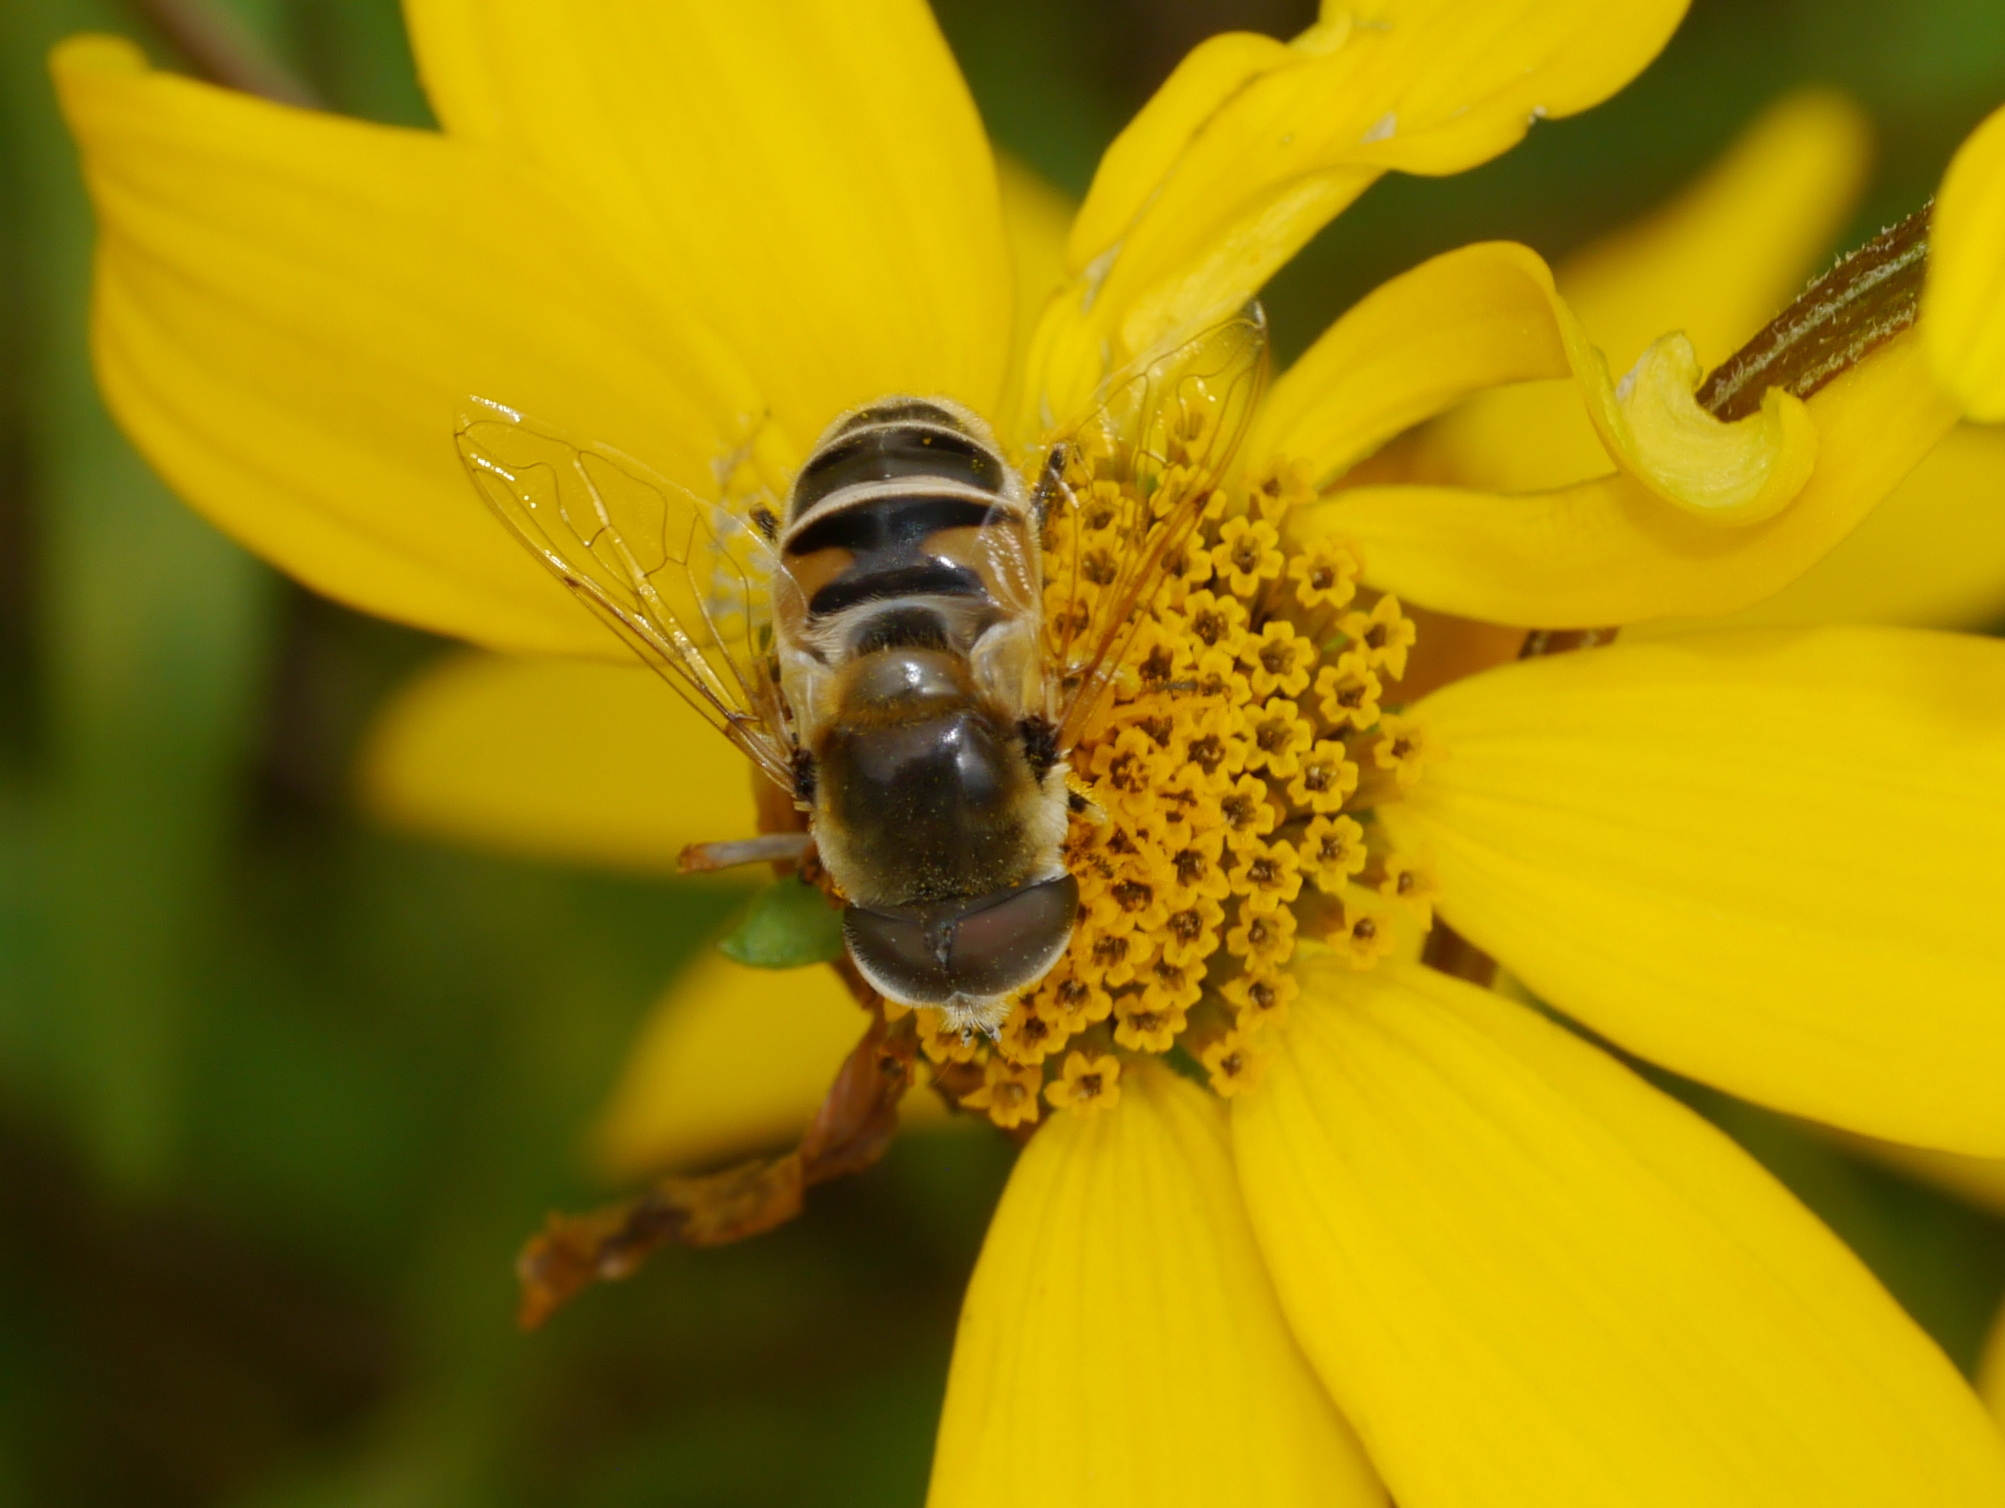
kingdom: Animalia
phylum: Arthropoda
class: Insecta
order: Diptera
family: Syrphidae
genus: Eristalis
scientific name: Eristalis stipator
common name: Yellow-shouldered drone fly
